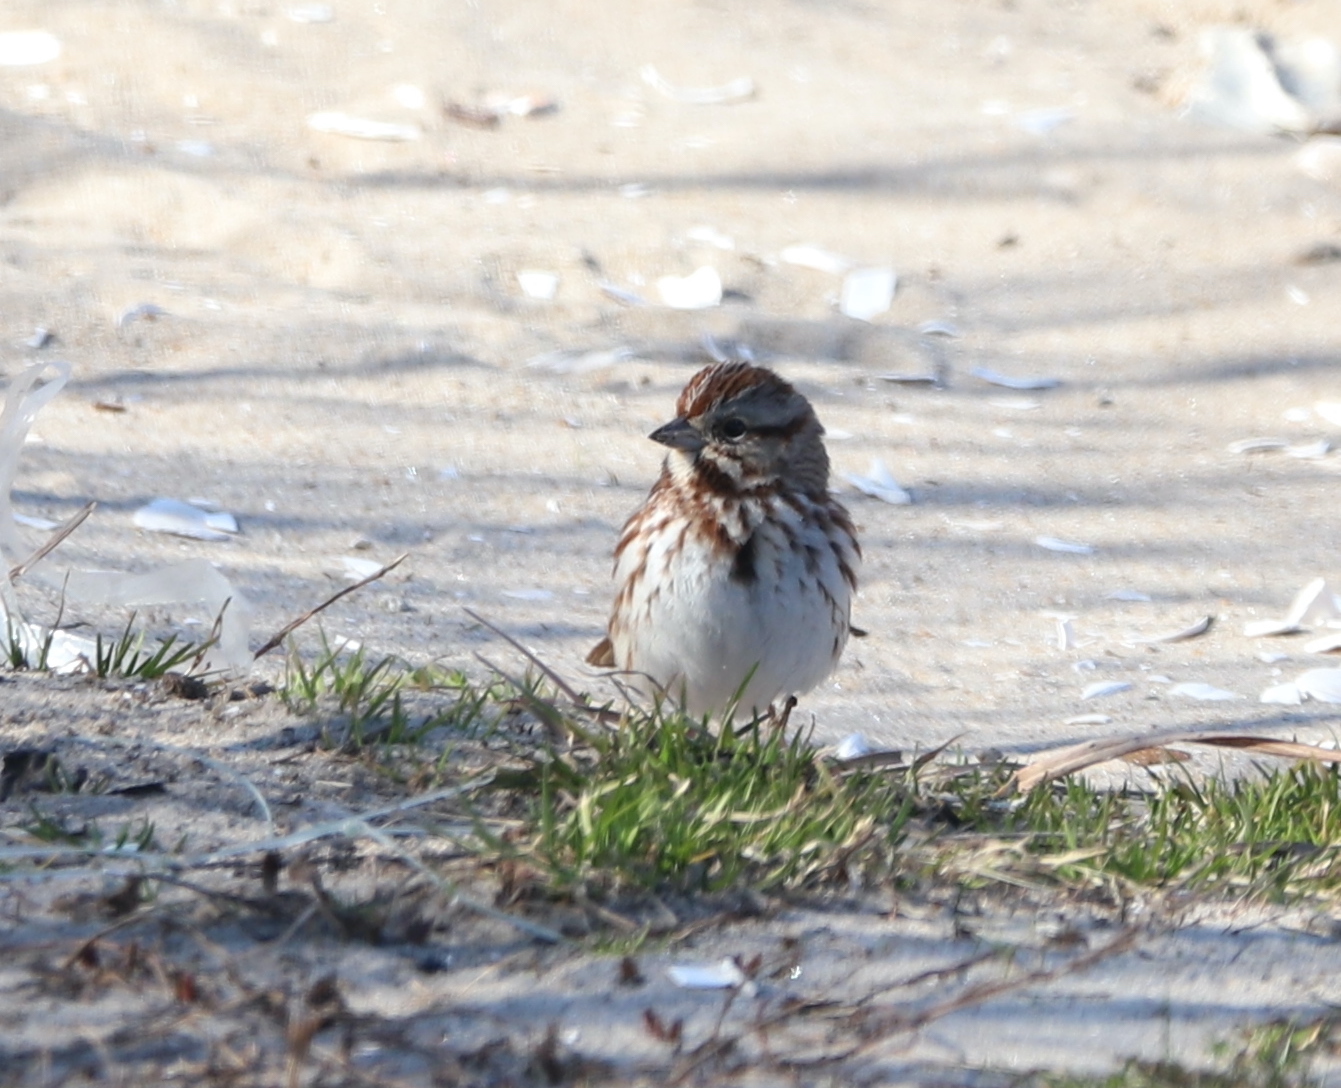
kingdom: Animalia
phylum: Chordata
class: Aves
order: Passeriformes
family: Passerellidae
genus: Melospiza
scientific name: Melospiza melodia
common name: Song sparrow
